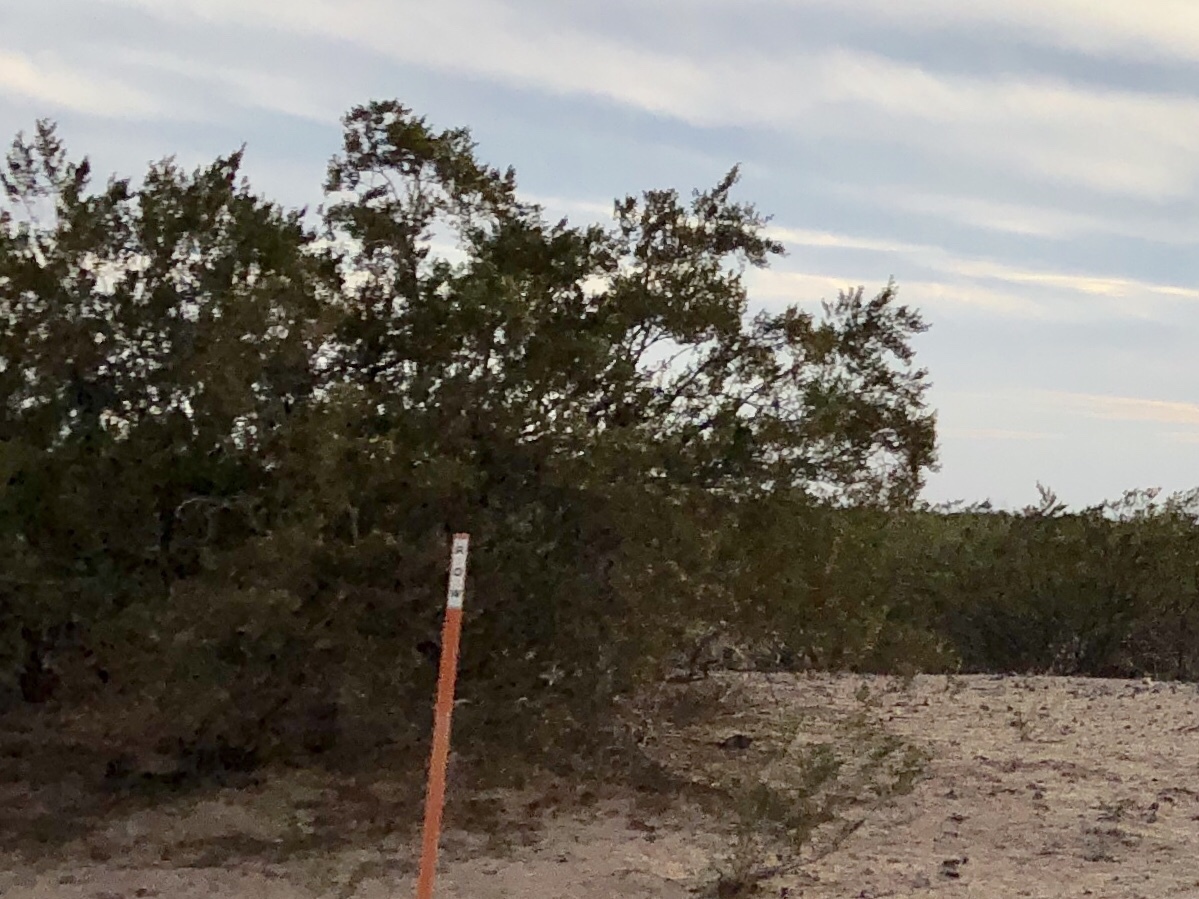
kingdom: Plantae
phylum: Tracheophyta
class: Magnoliopsida
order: Zygophyllales
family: Zygophyllaceae
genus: Larrea
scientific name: Larrea tridentata
